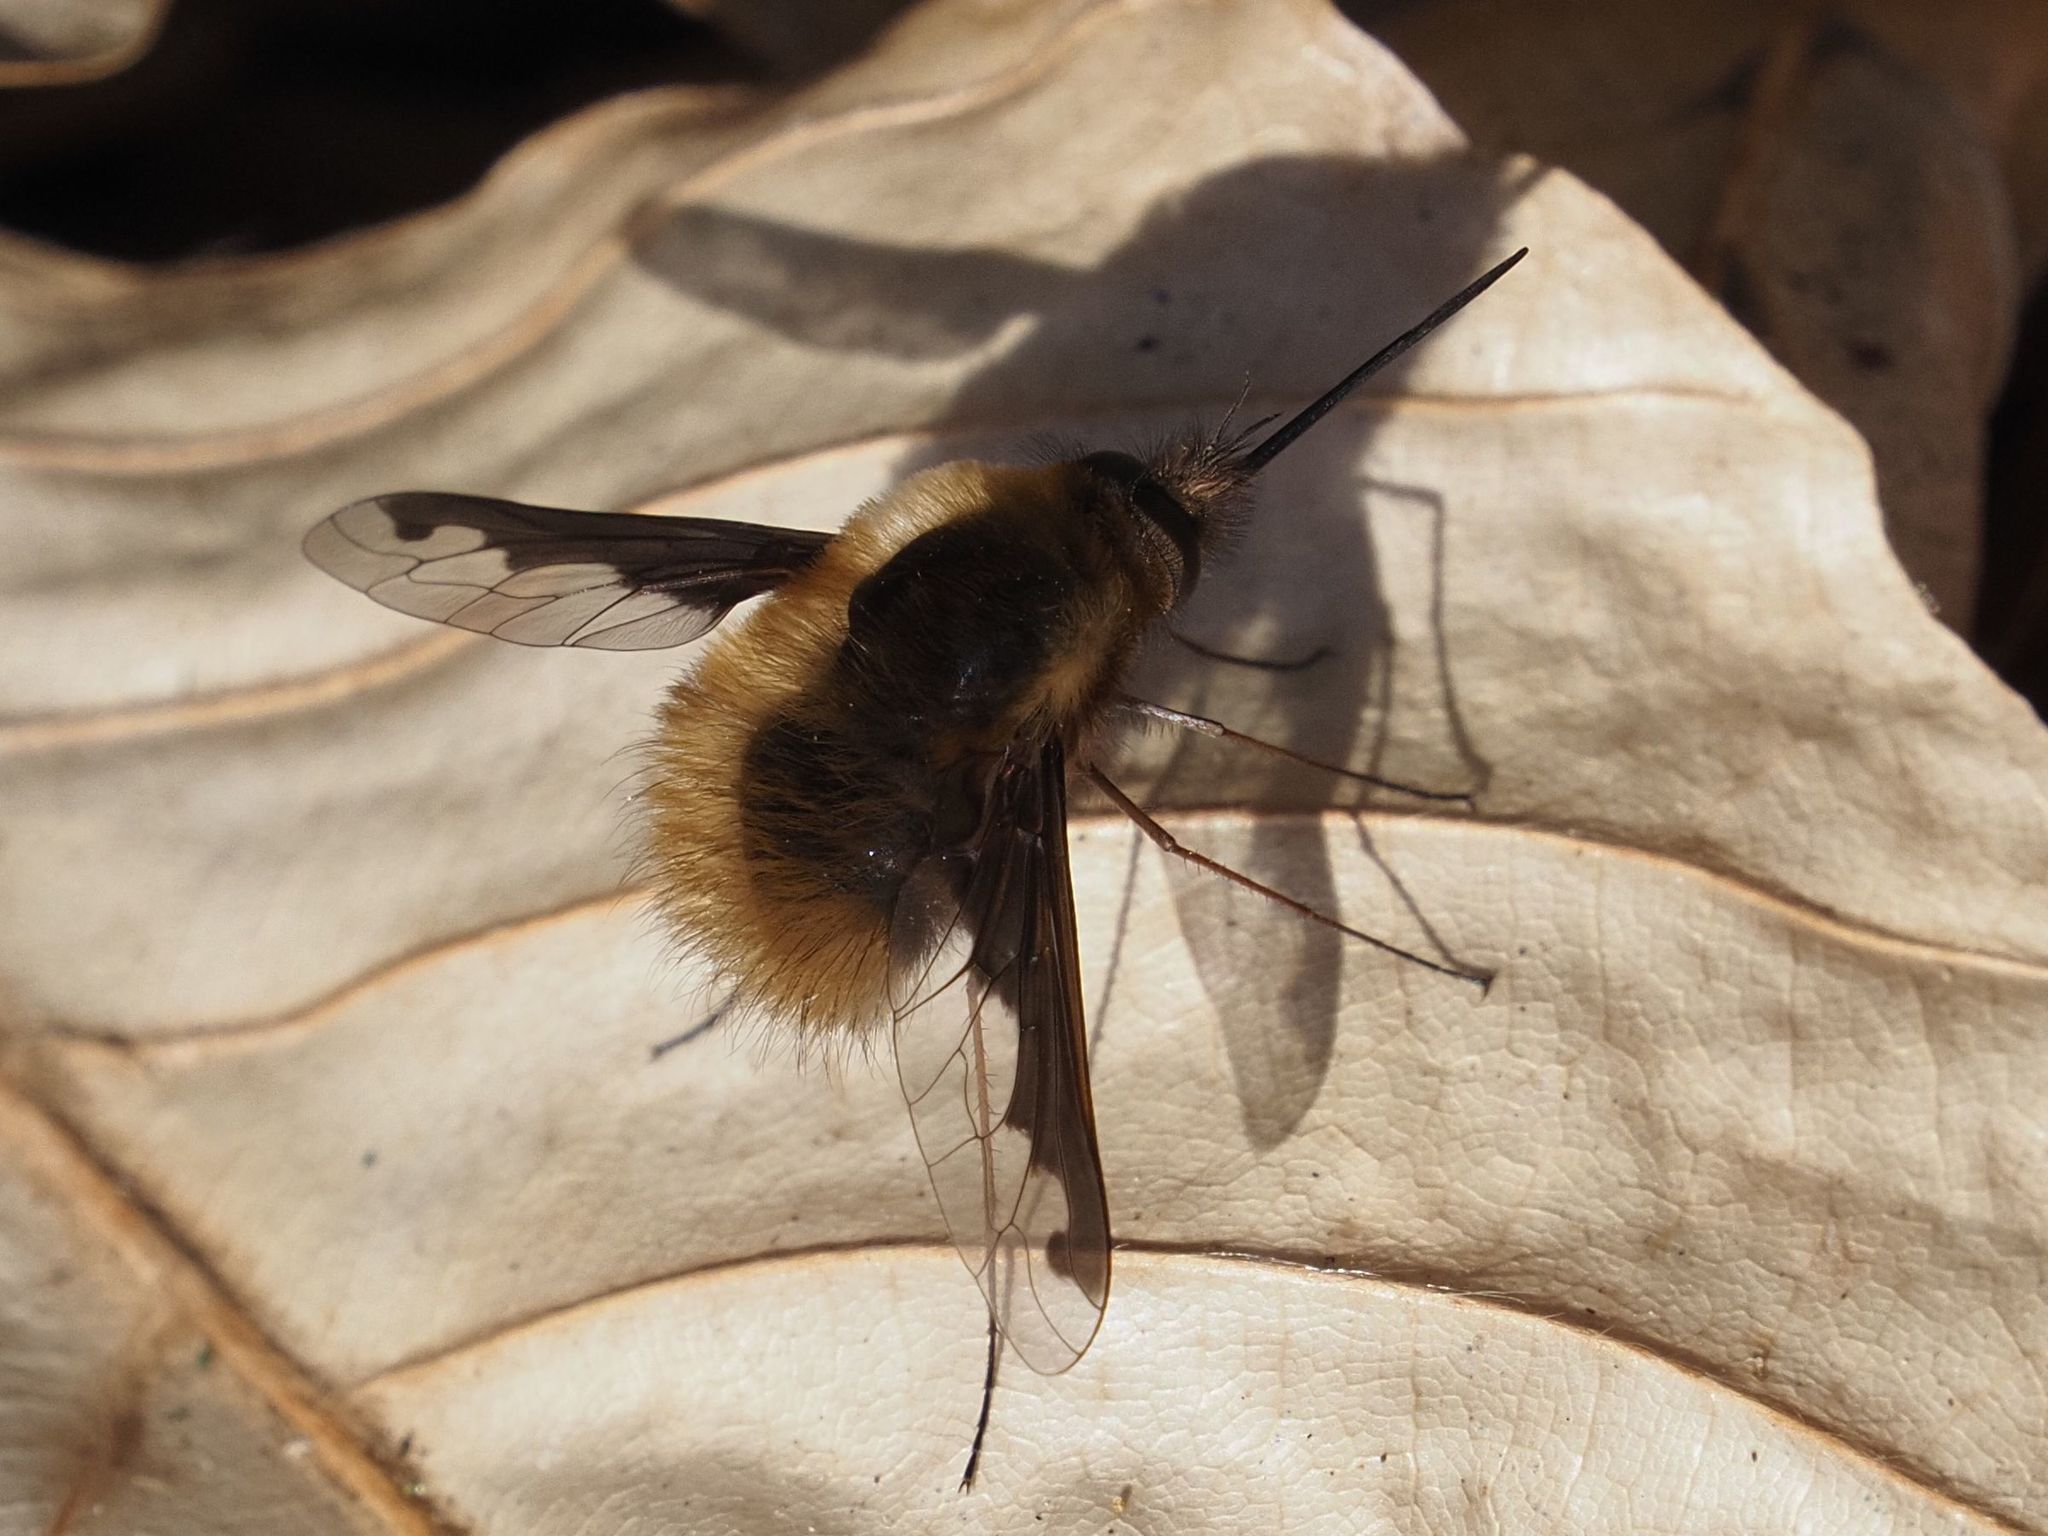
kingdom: Animalia
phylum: Arthropoda
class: Insecta
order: Diptera
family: Bombyliidae
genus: Bombylius
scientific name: Bombylius major
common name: Bee fly
